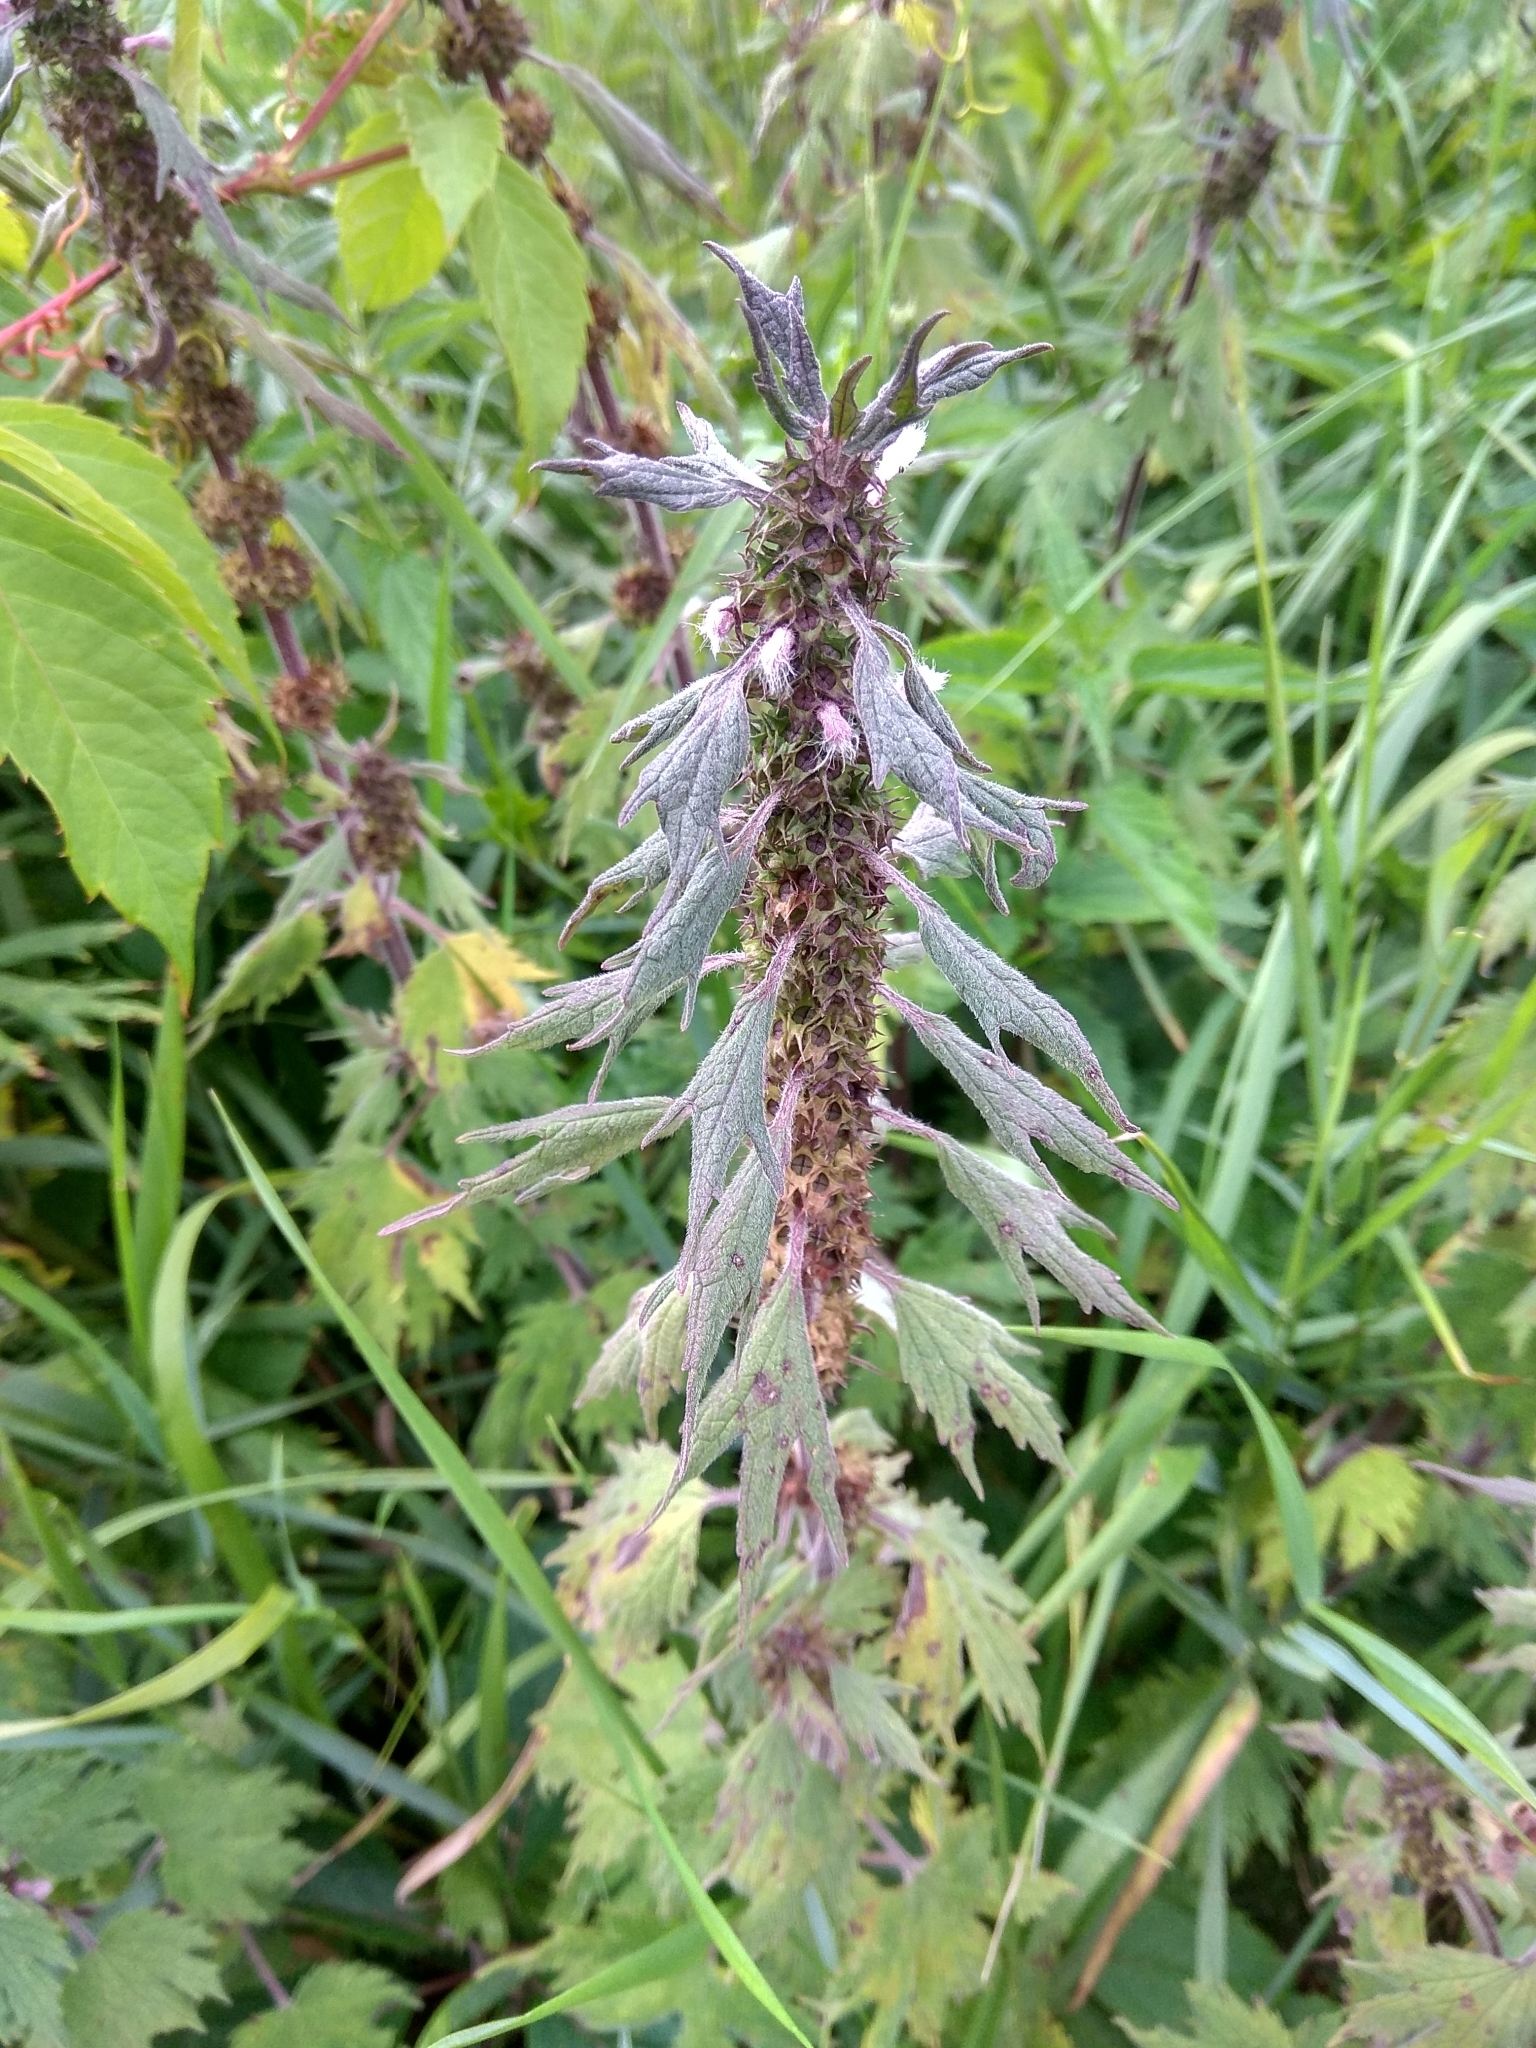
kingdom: Plantae
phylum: Tracheophyta
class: Magnoliopsida
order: Lamiales
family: Lamiaceae
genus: Leonurus
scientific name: Leonurus quinquelobatus
